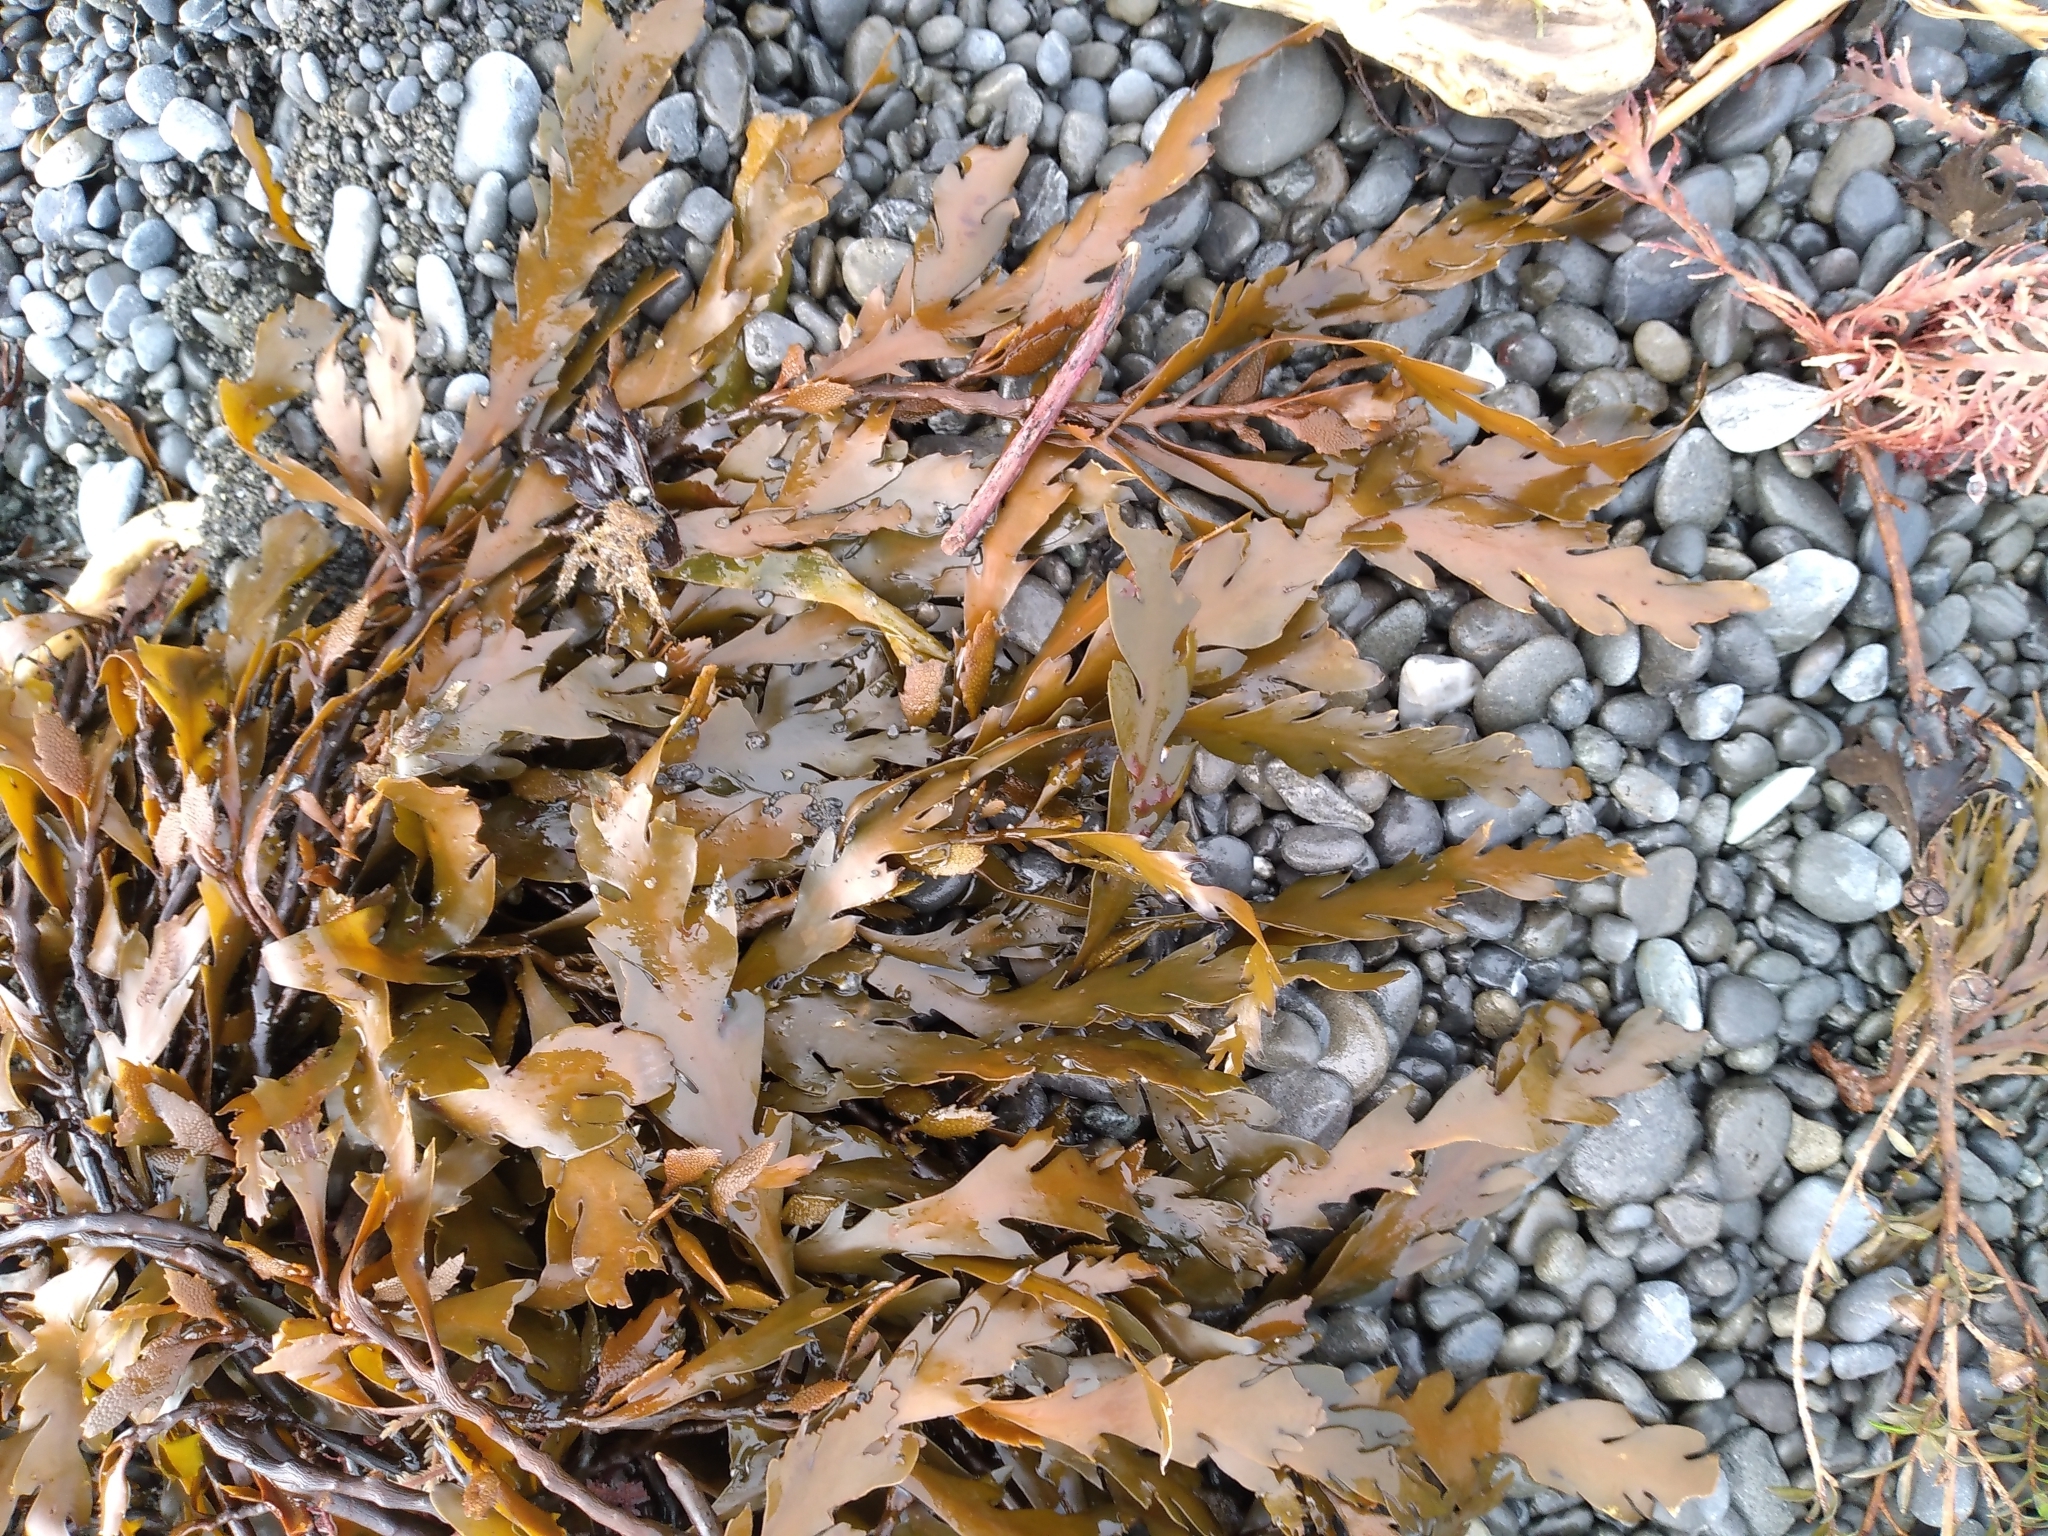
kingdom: Chromista
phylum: Ochrophyta
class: Phaeophyceae
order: Fucales
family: Sargassaceae
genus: Landsburgia
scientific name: Landsburgia quercifolia
